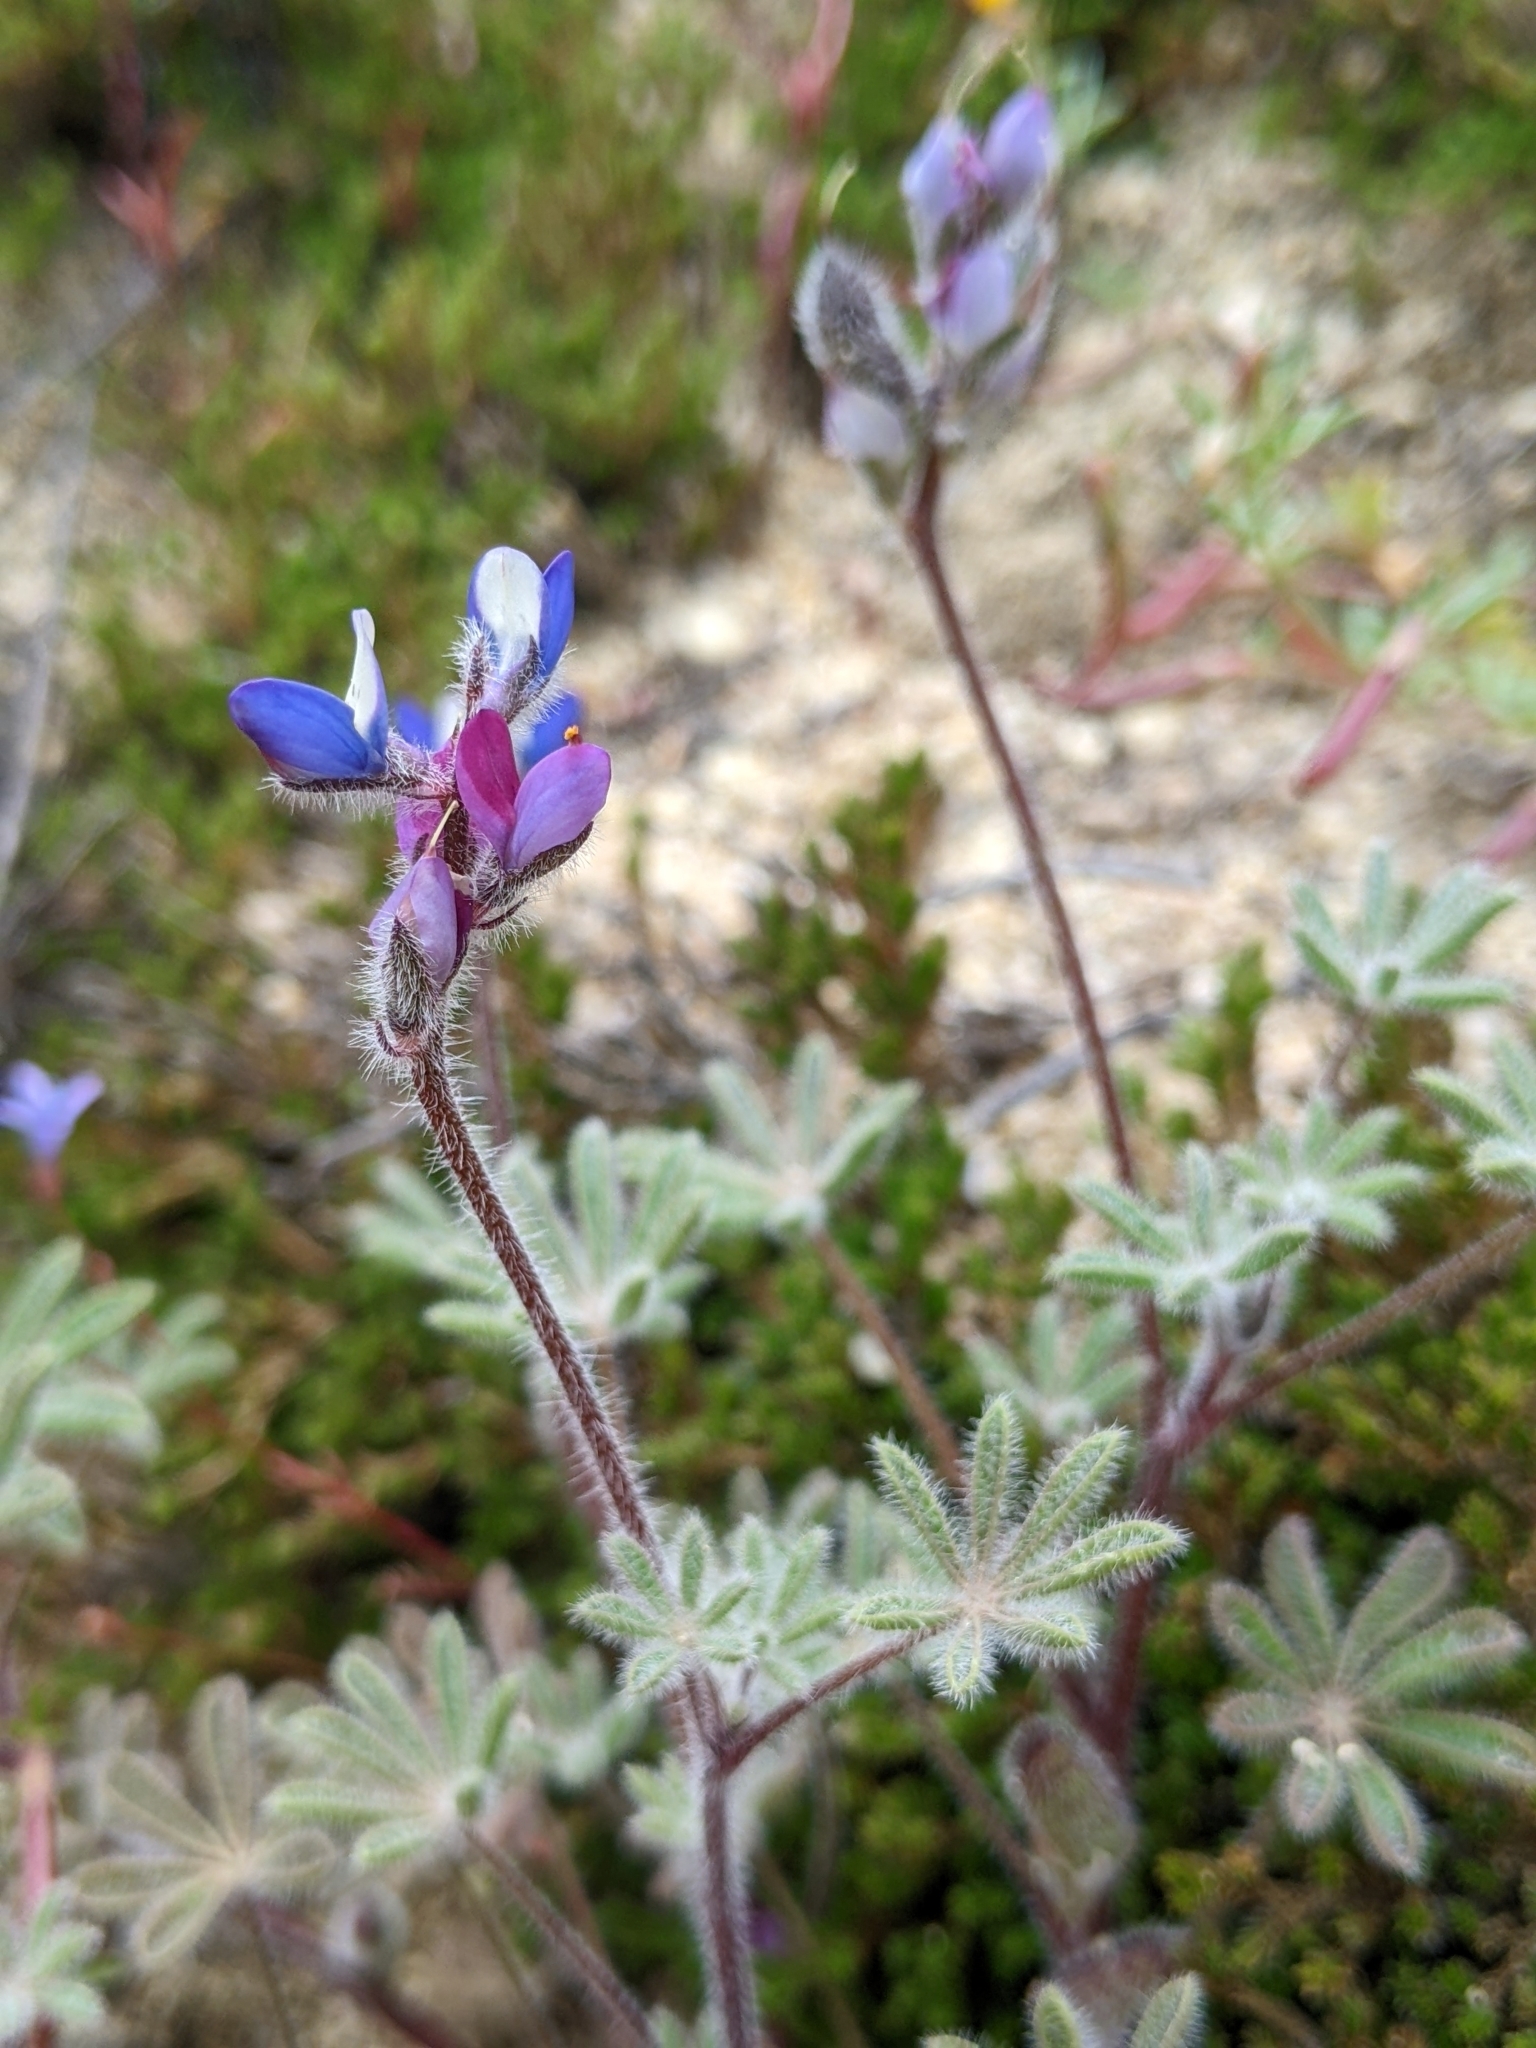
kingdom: Plantae
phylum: Tracheophyta
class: Magnoliopsida
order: Fabales
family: Fabaceae
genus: Lupinus
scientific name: Lupinus concinnus
